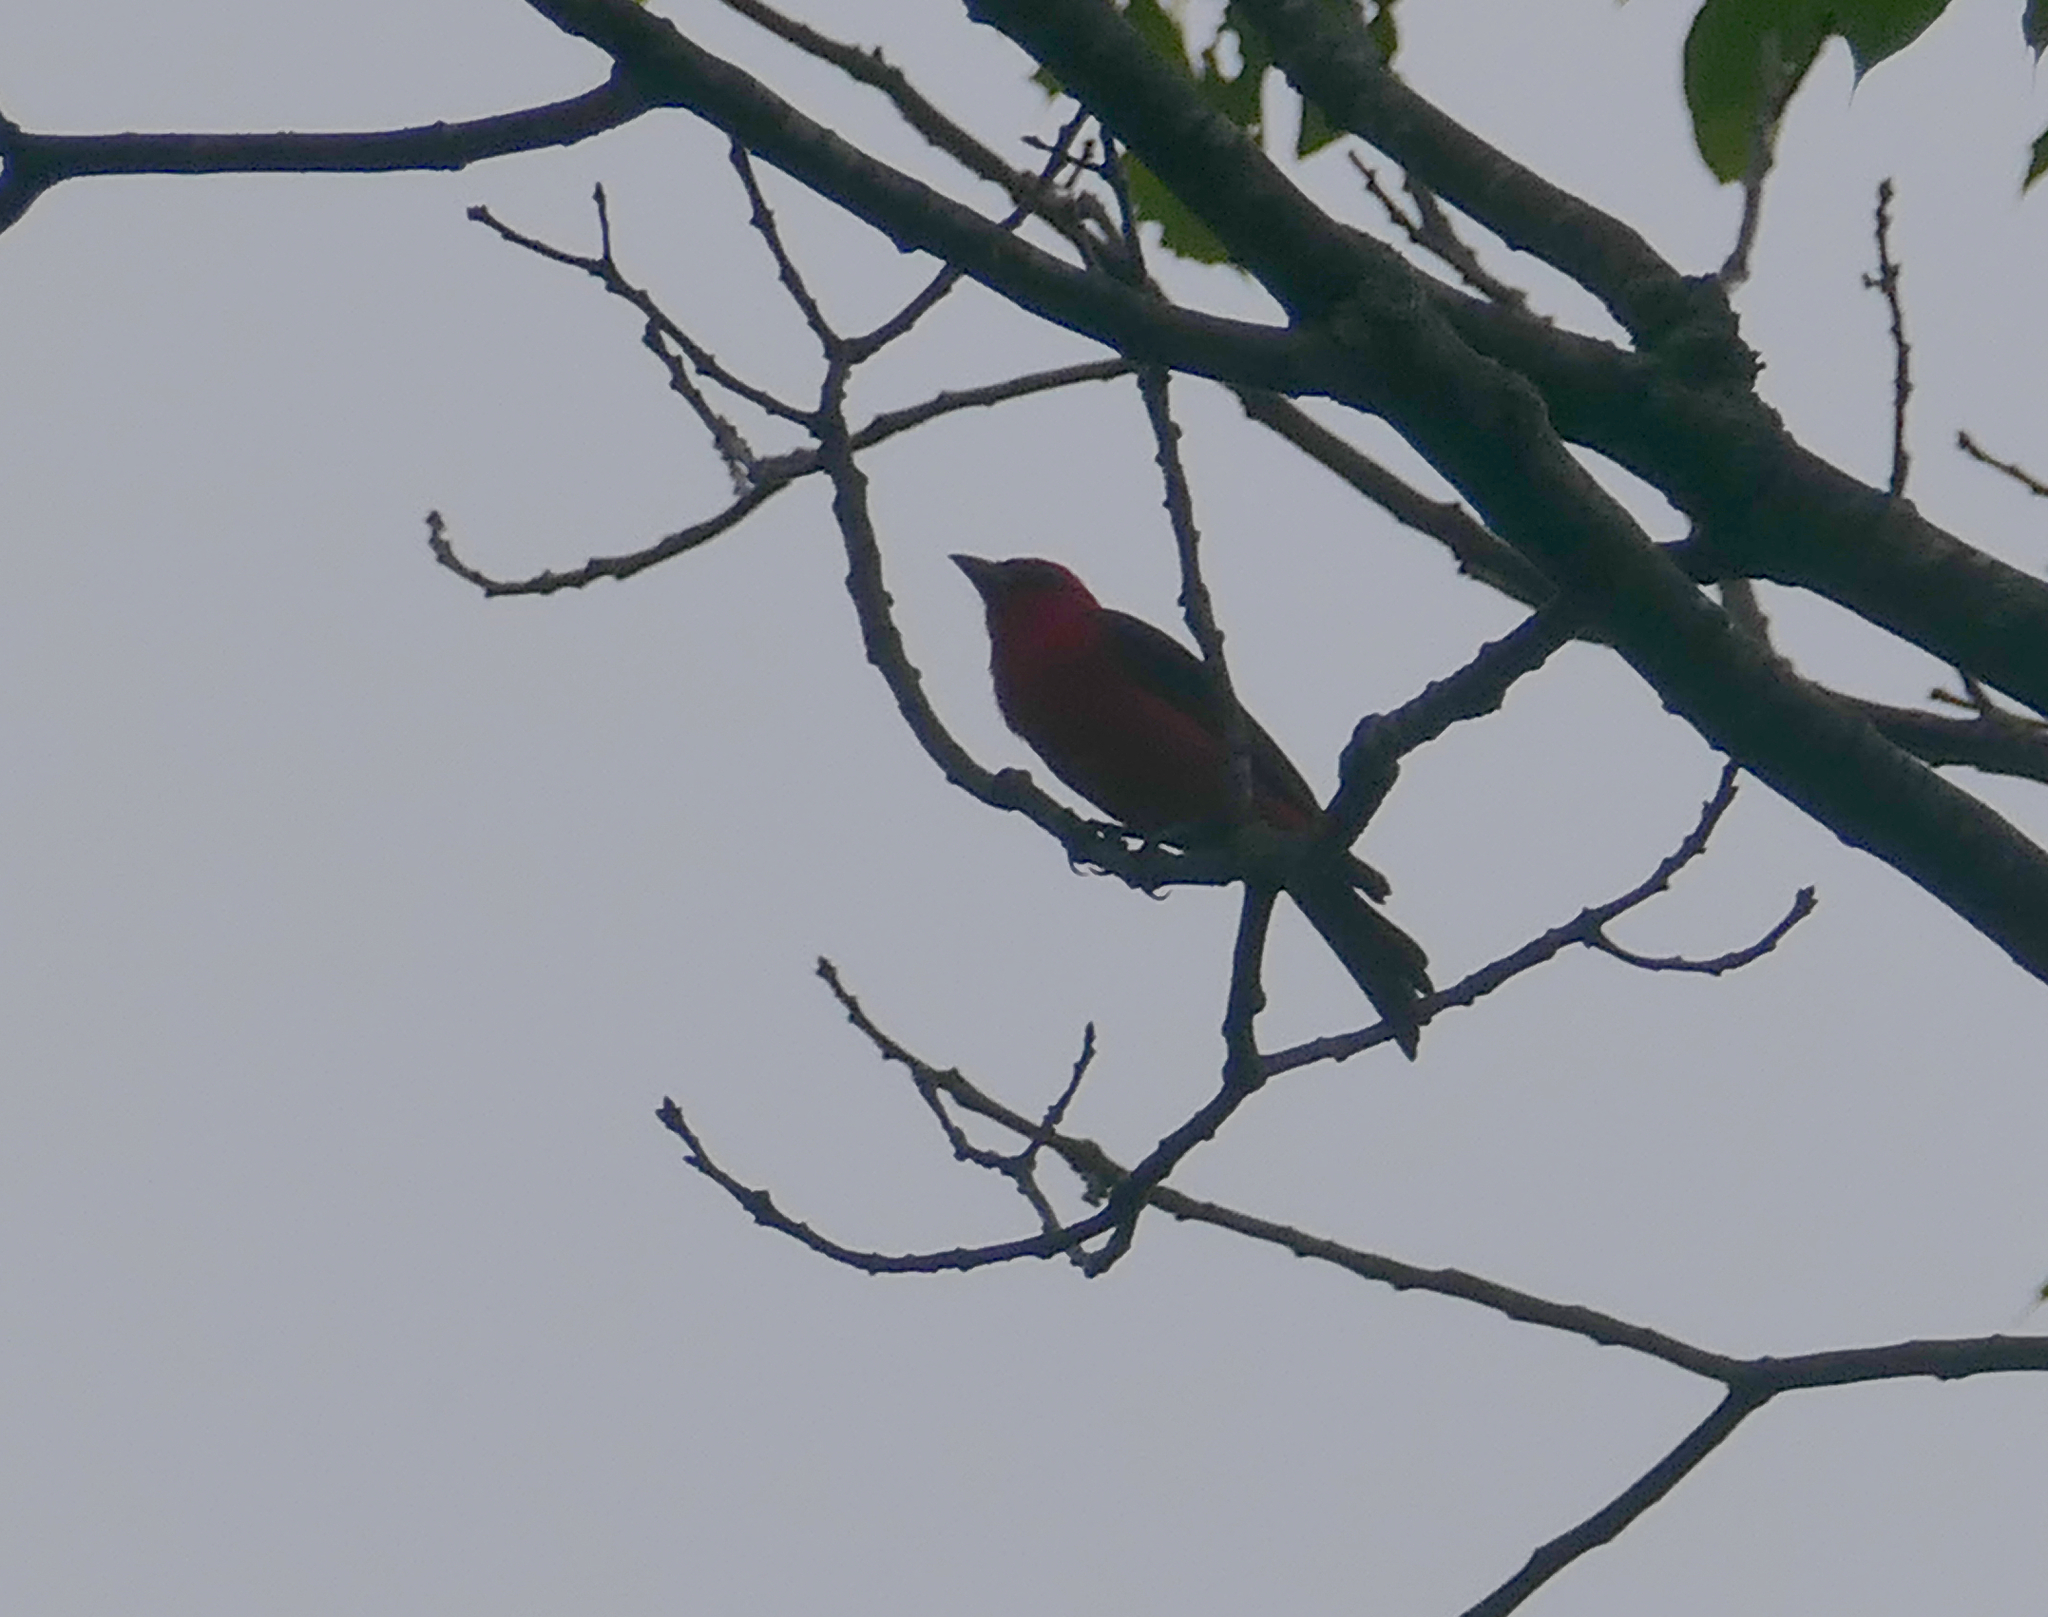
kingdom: Animalia
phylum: Chordata
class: Aves
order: Passeriformes
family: Cardinalidae
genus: Piranga
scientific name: Piranga olivacea
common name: Scarlet tanager
